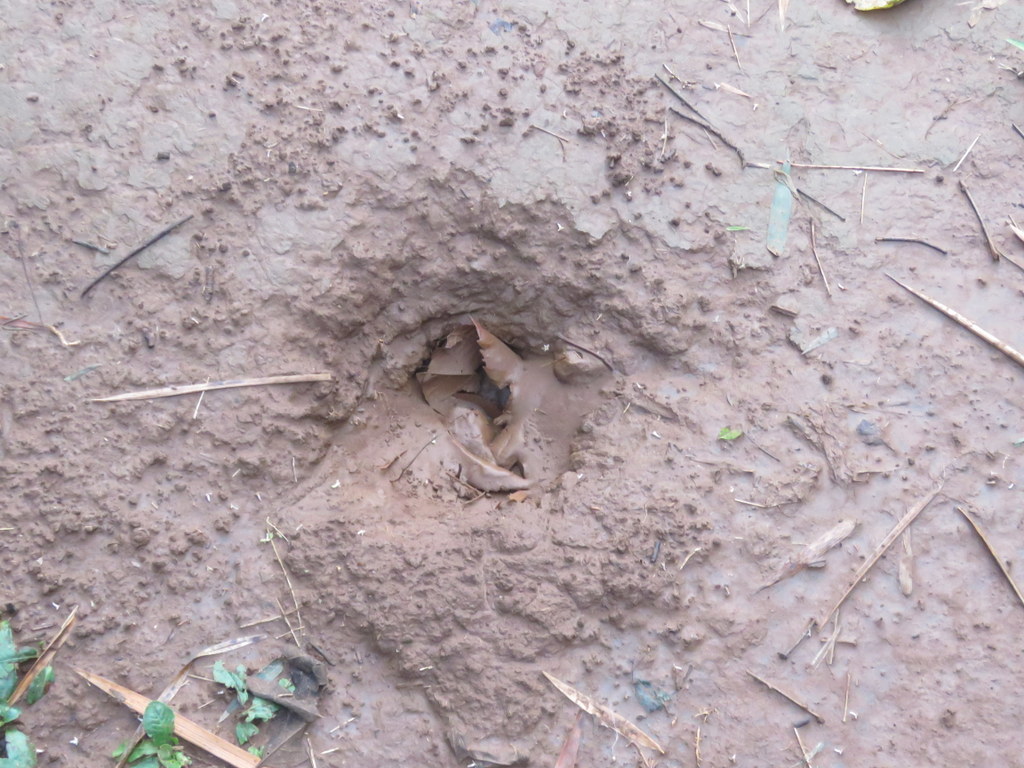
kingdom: Animalia
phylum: Chordata
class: Mammalia
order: Perissodactyla
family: Tapiridae
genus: Tapirus
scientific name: Tapirus terrestris
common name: Brazilian tapir
